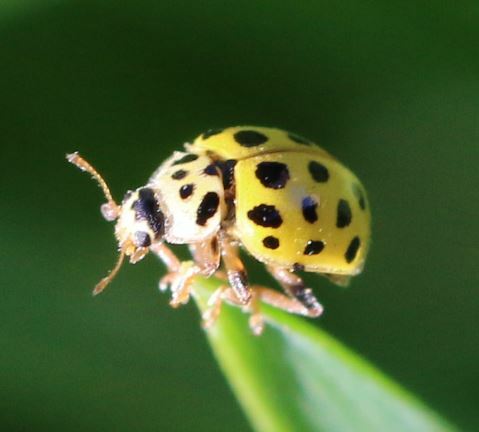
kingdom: Animalia
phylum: Arthropoda
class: Insecta
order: Coleoptera
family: Coccinellidae
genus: Psyllobora
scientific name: Psyllobora vigintiduopunctata
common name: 22-spot ladybird
